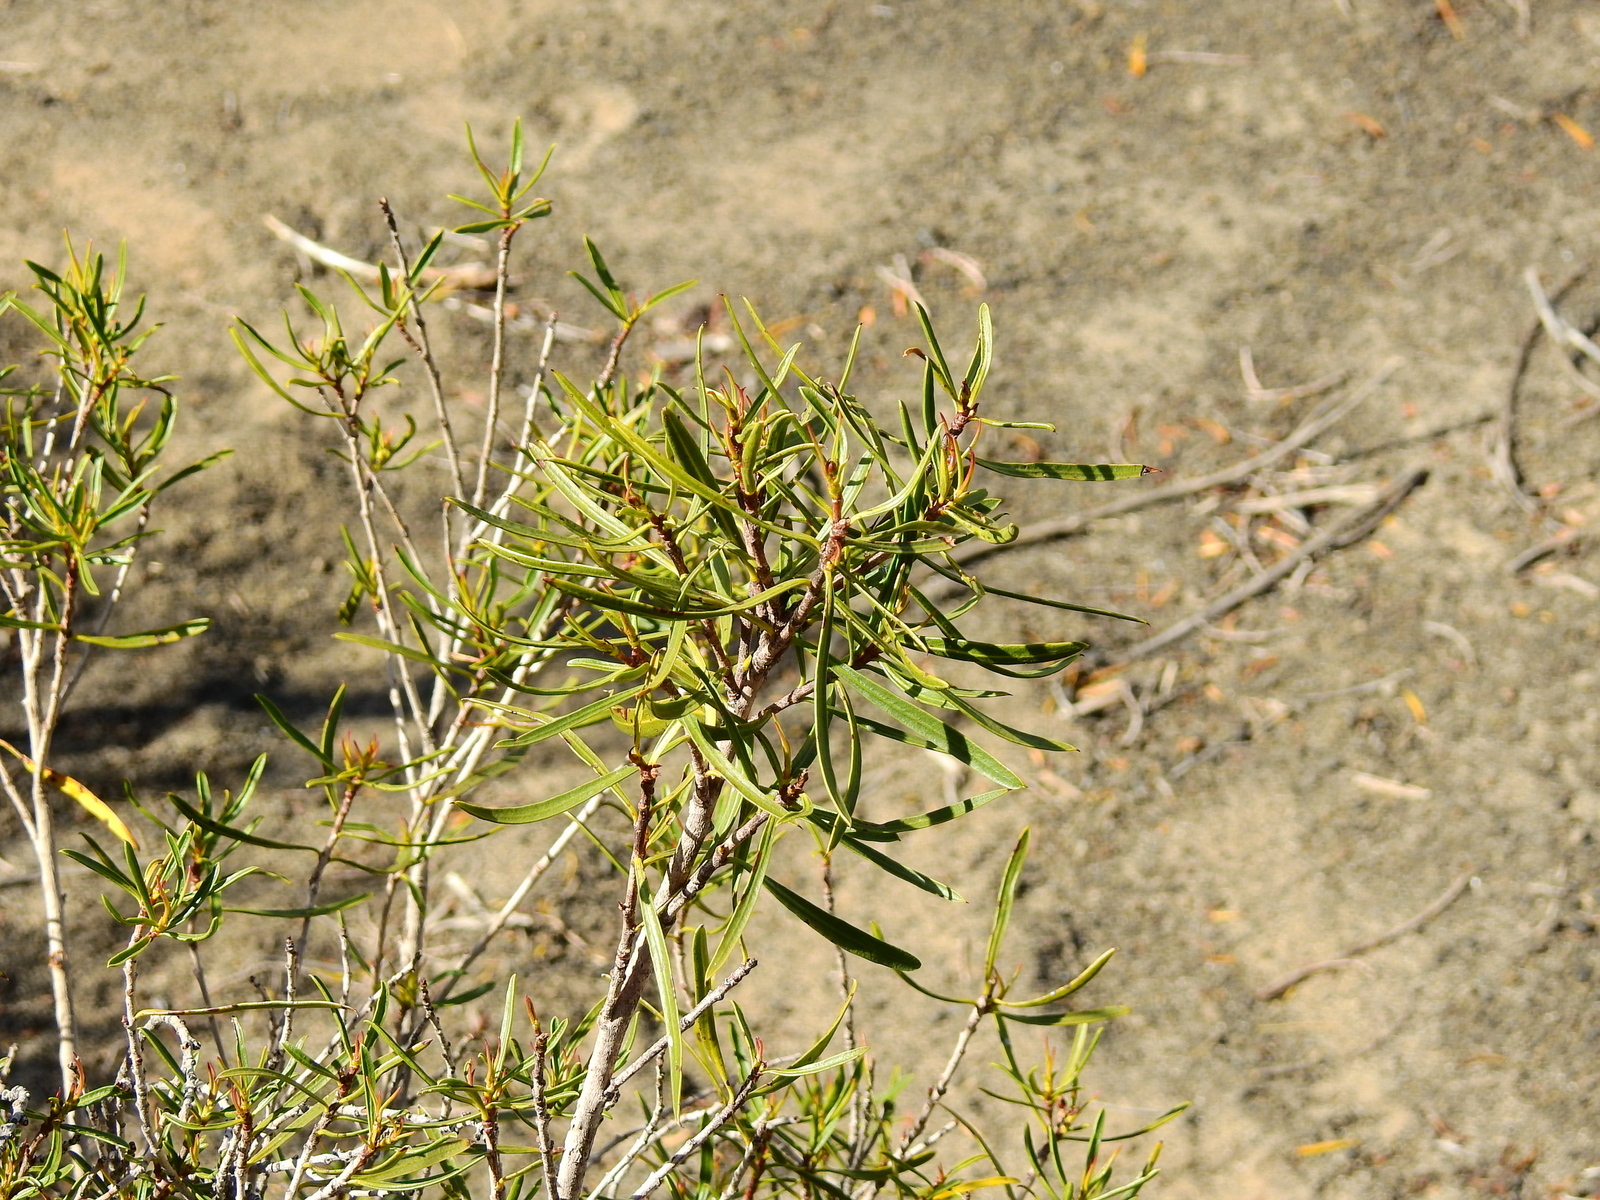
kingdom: Plantae
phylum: Tracheophyta
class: Magnoliopsida
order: Malpighiales
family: Euphorbiaceae
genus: Colliguaja
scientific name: Colliguaja integerrima
